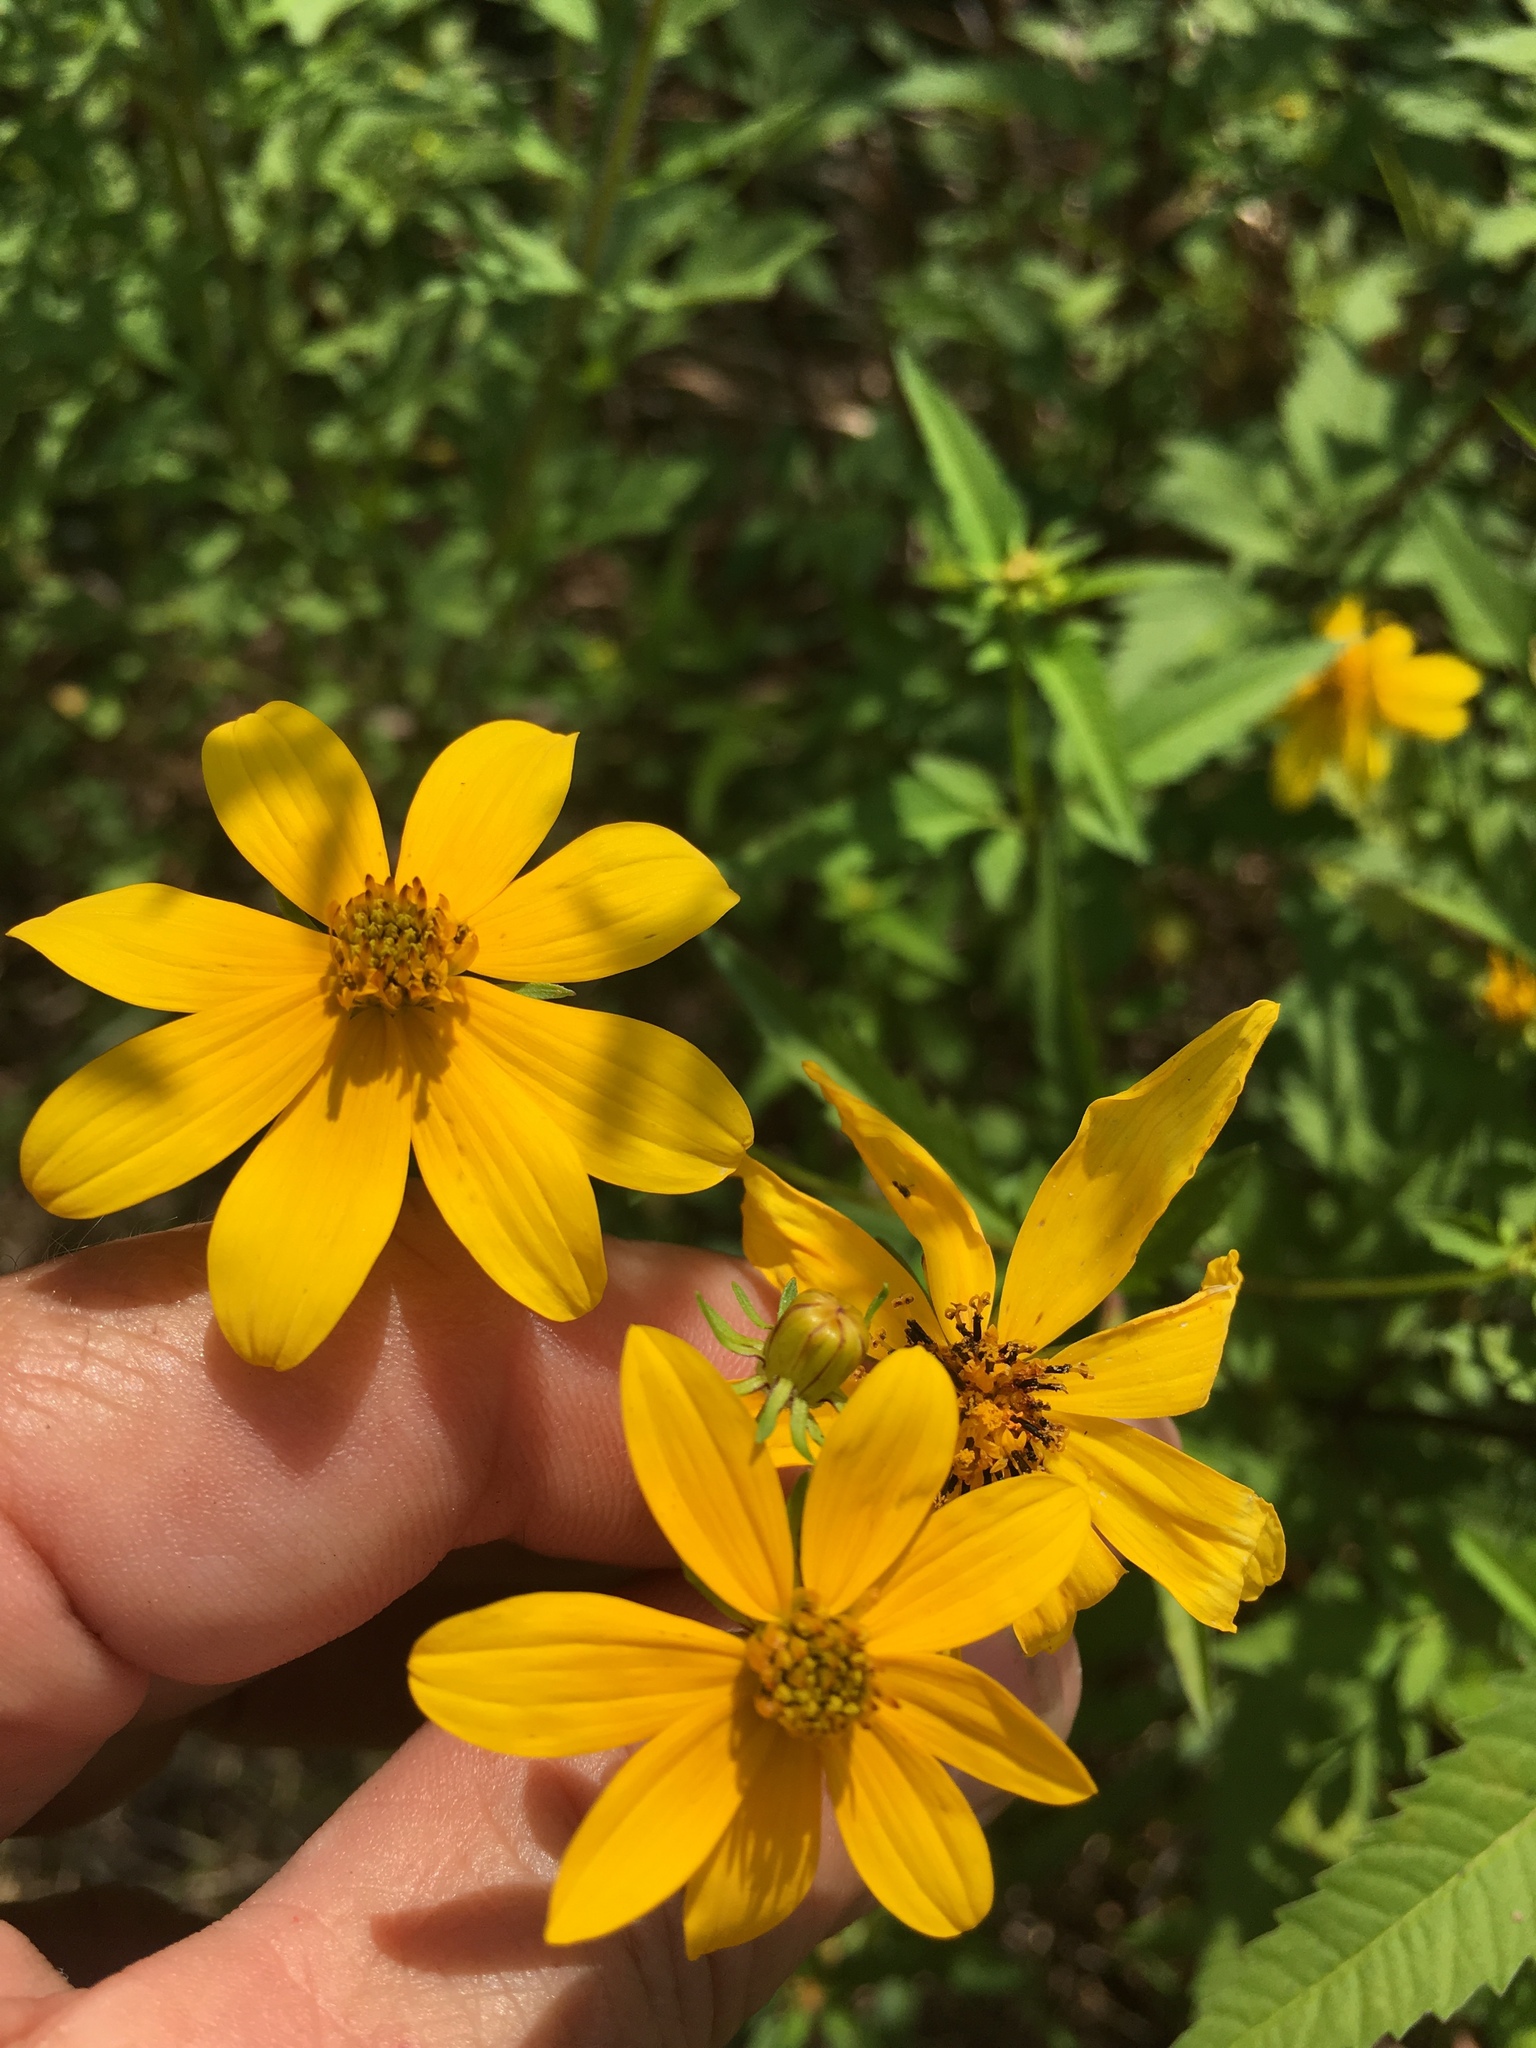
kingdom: Plantae
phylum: Tracheophyta
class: Magnoliopsida
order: Asterales
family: Asteraceae
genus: Bidens
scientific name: Bidens aristosa
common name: Western tickseed
